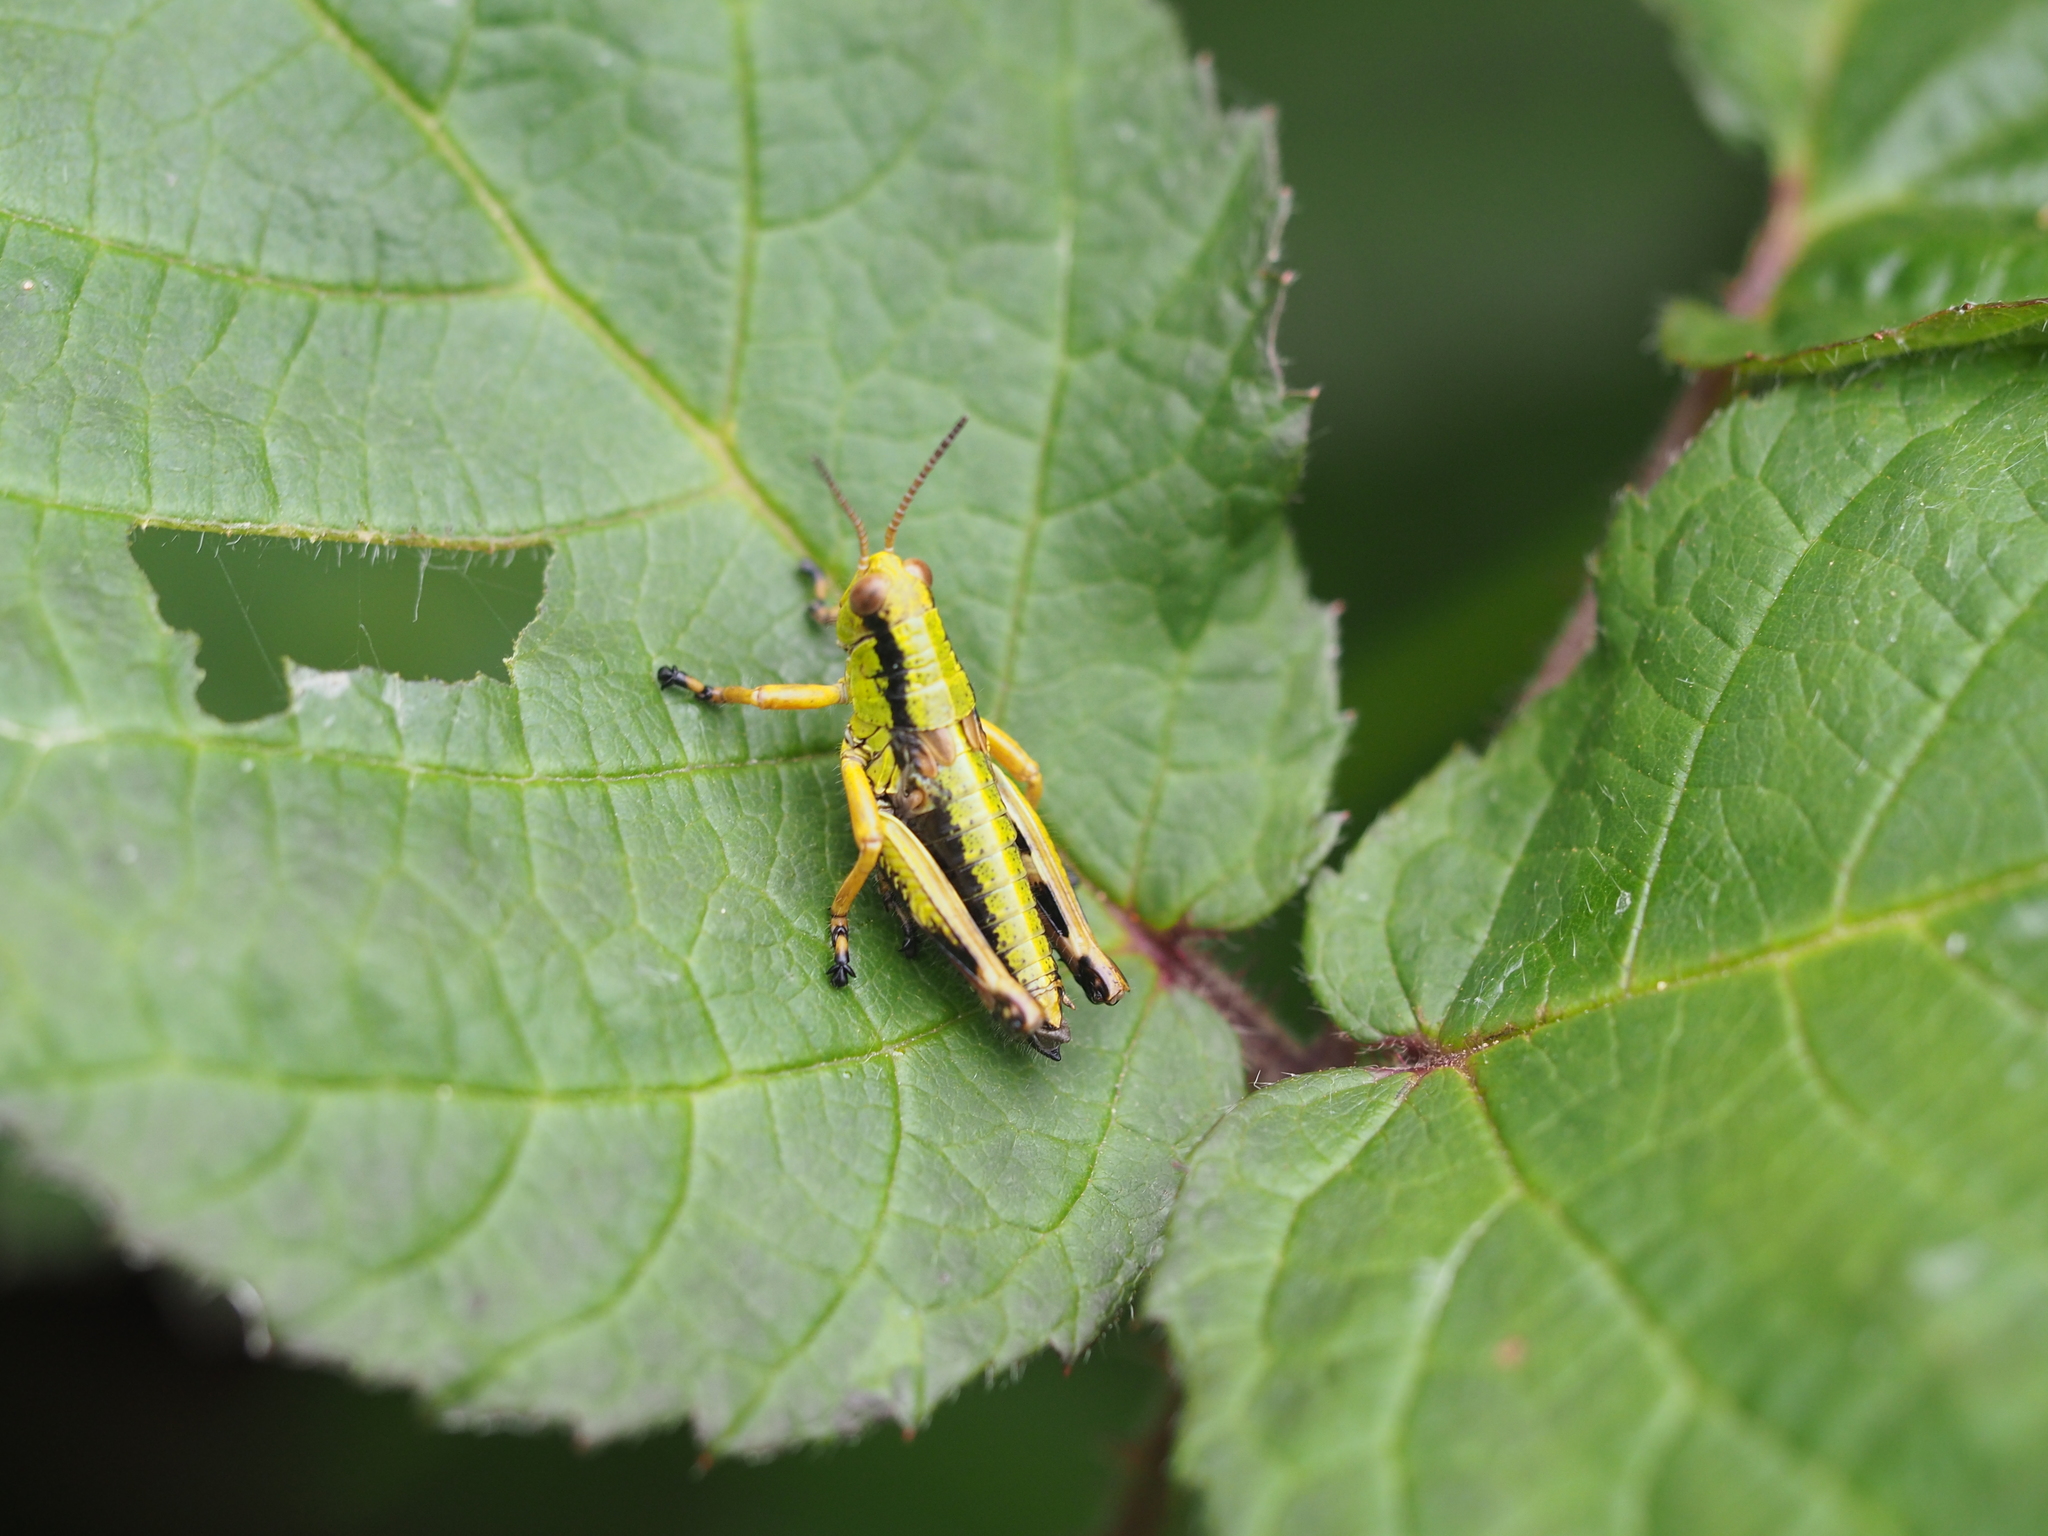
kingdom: Animalia
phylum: Arthropoda
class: Insecta
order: Orthoptera
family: Acrididae
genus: Miramella
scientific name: Miramella alpina
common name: Green mountain grasshopper
